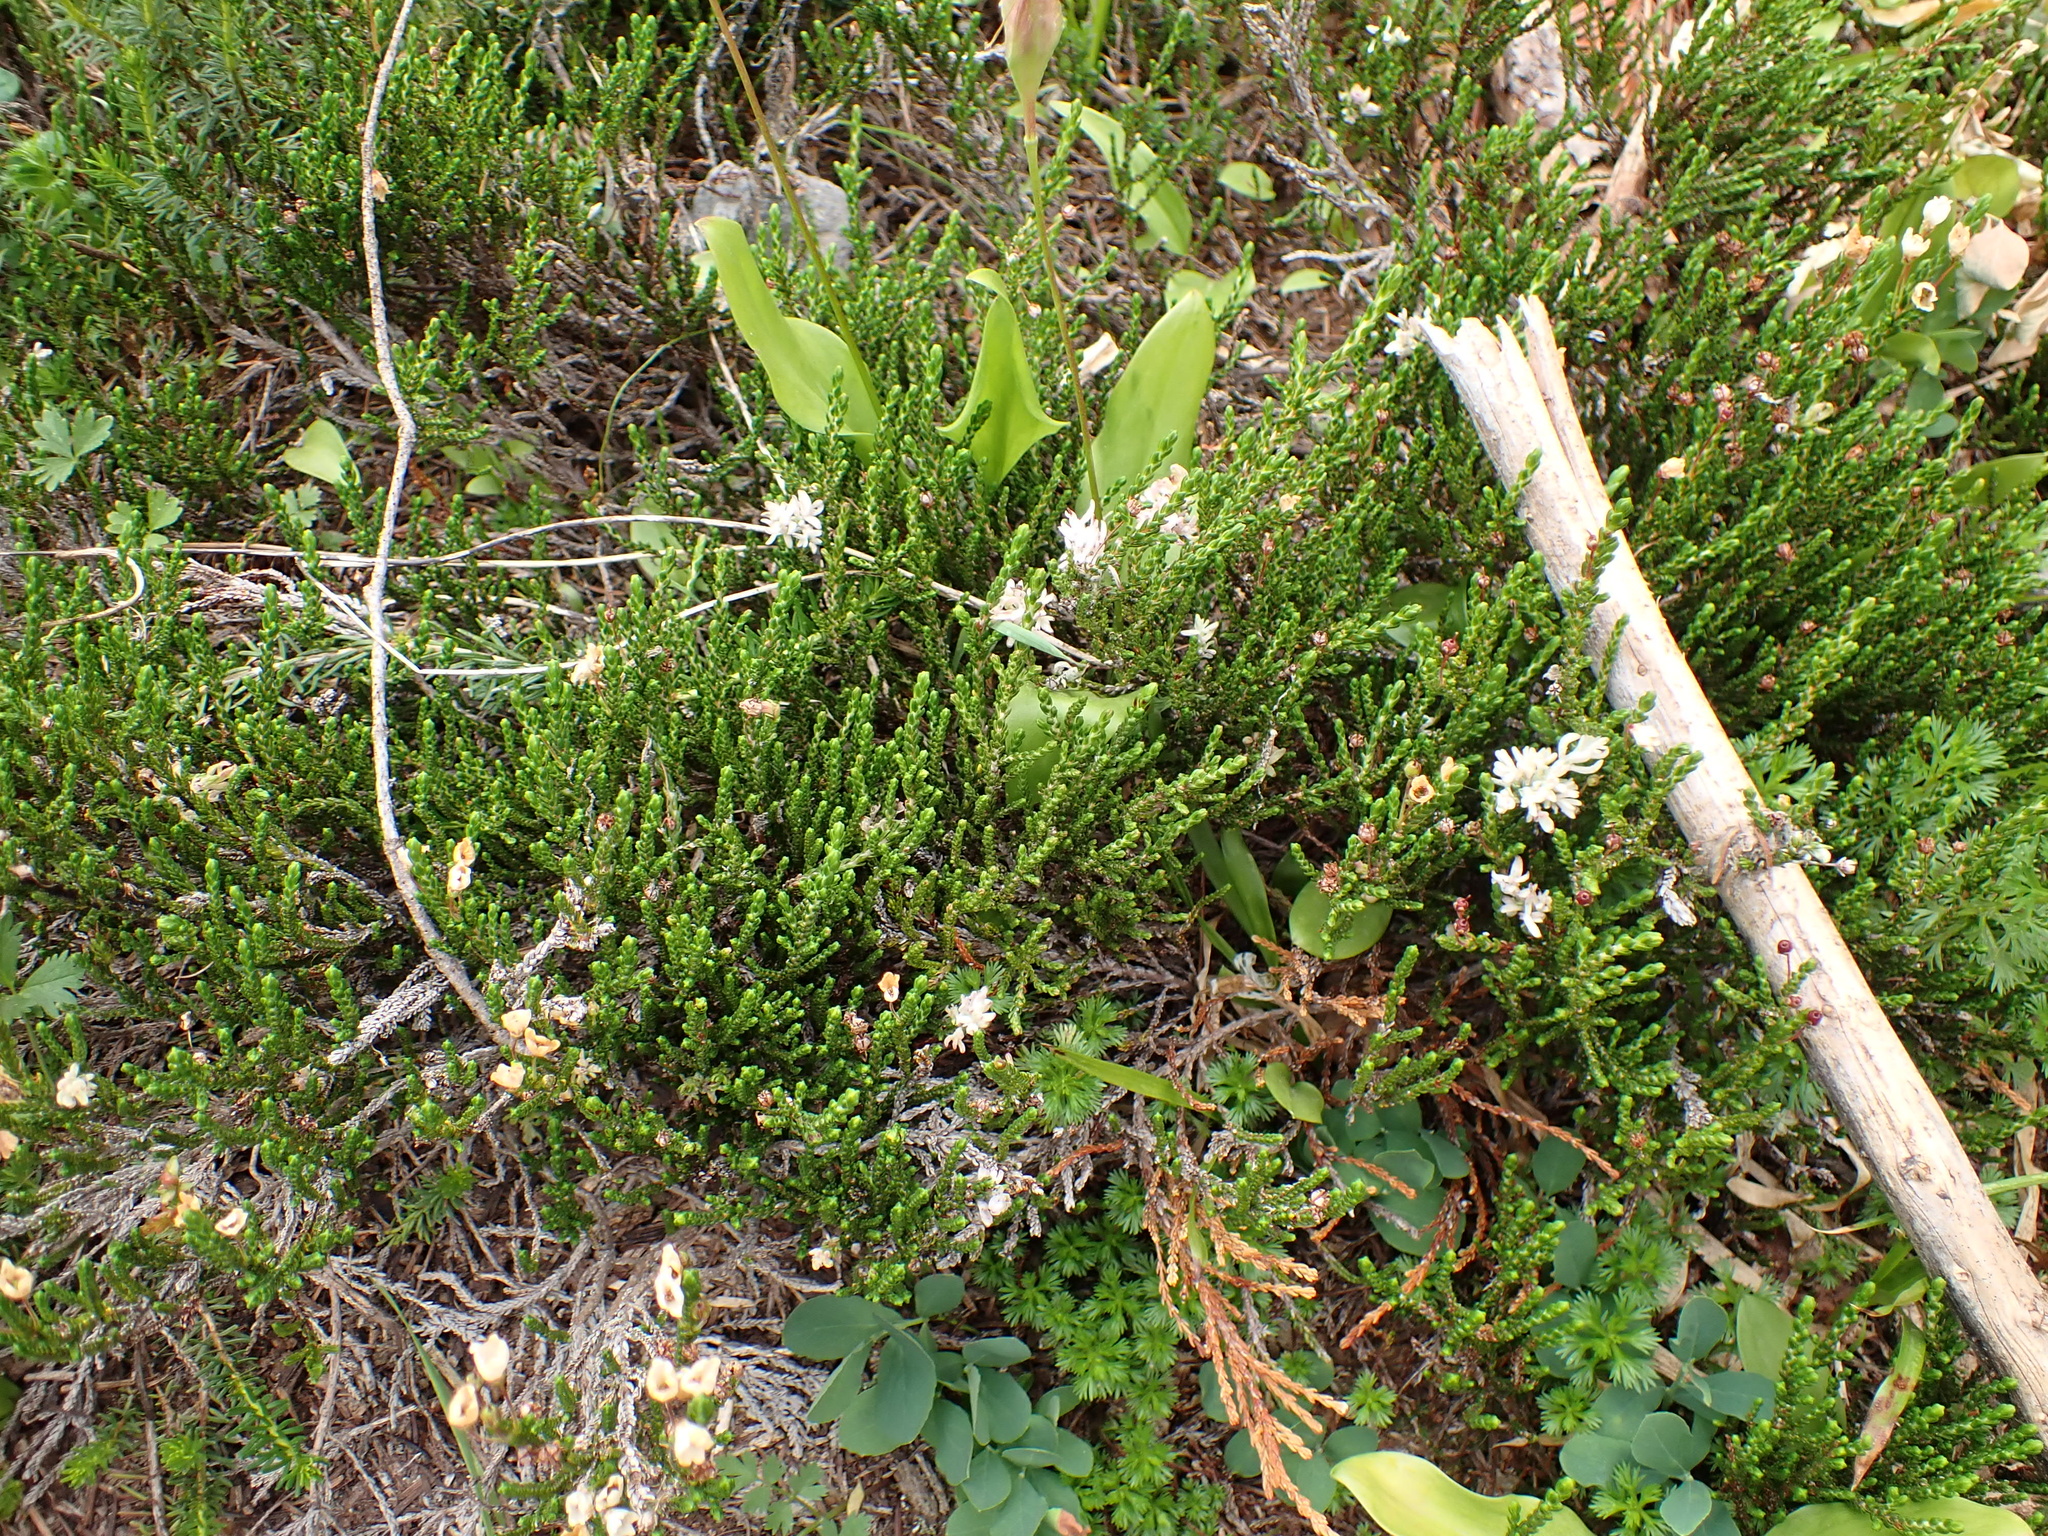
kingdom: Plantae
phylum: Tracheophyta
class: Magnoliopsida
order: Ericales
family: Ericaceae
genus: Cassiope
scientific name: Cassiope mertensiana
